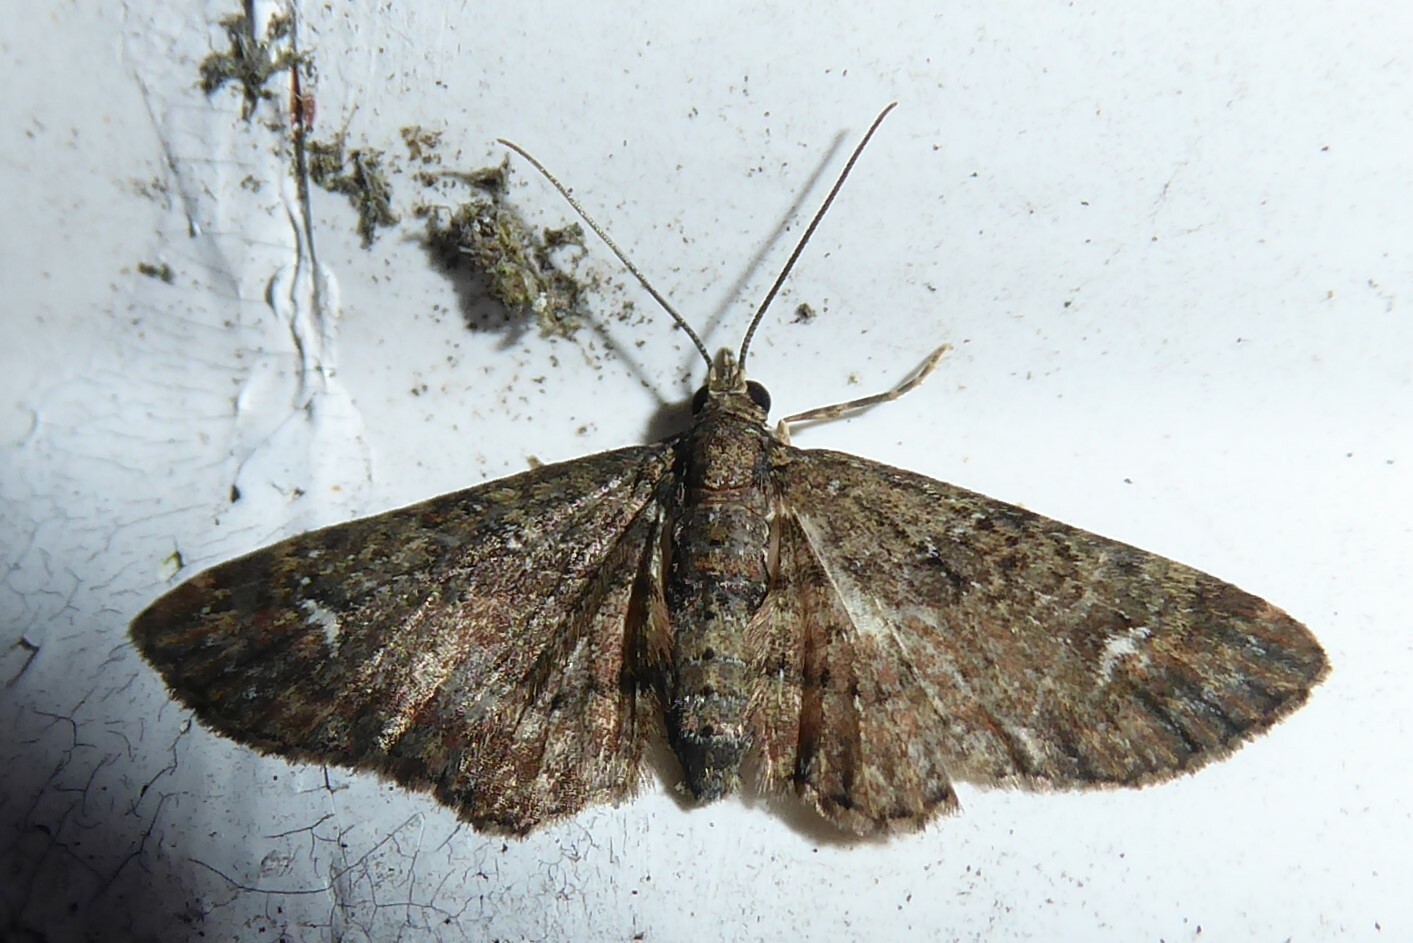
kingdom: Animalia
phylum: Arthropoda
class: Insecta
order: Lepidoptera
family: Geometridae
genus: Pasiphilodes
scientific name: Pasiphilodes testulata
